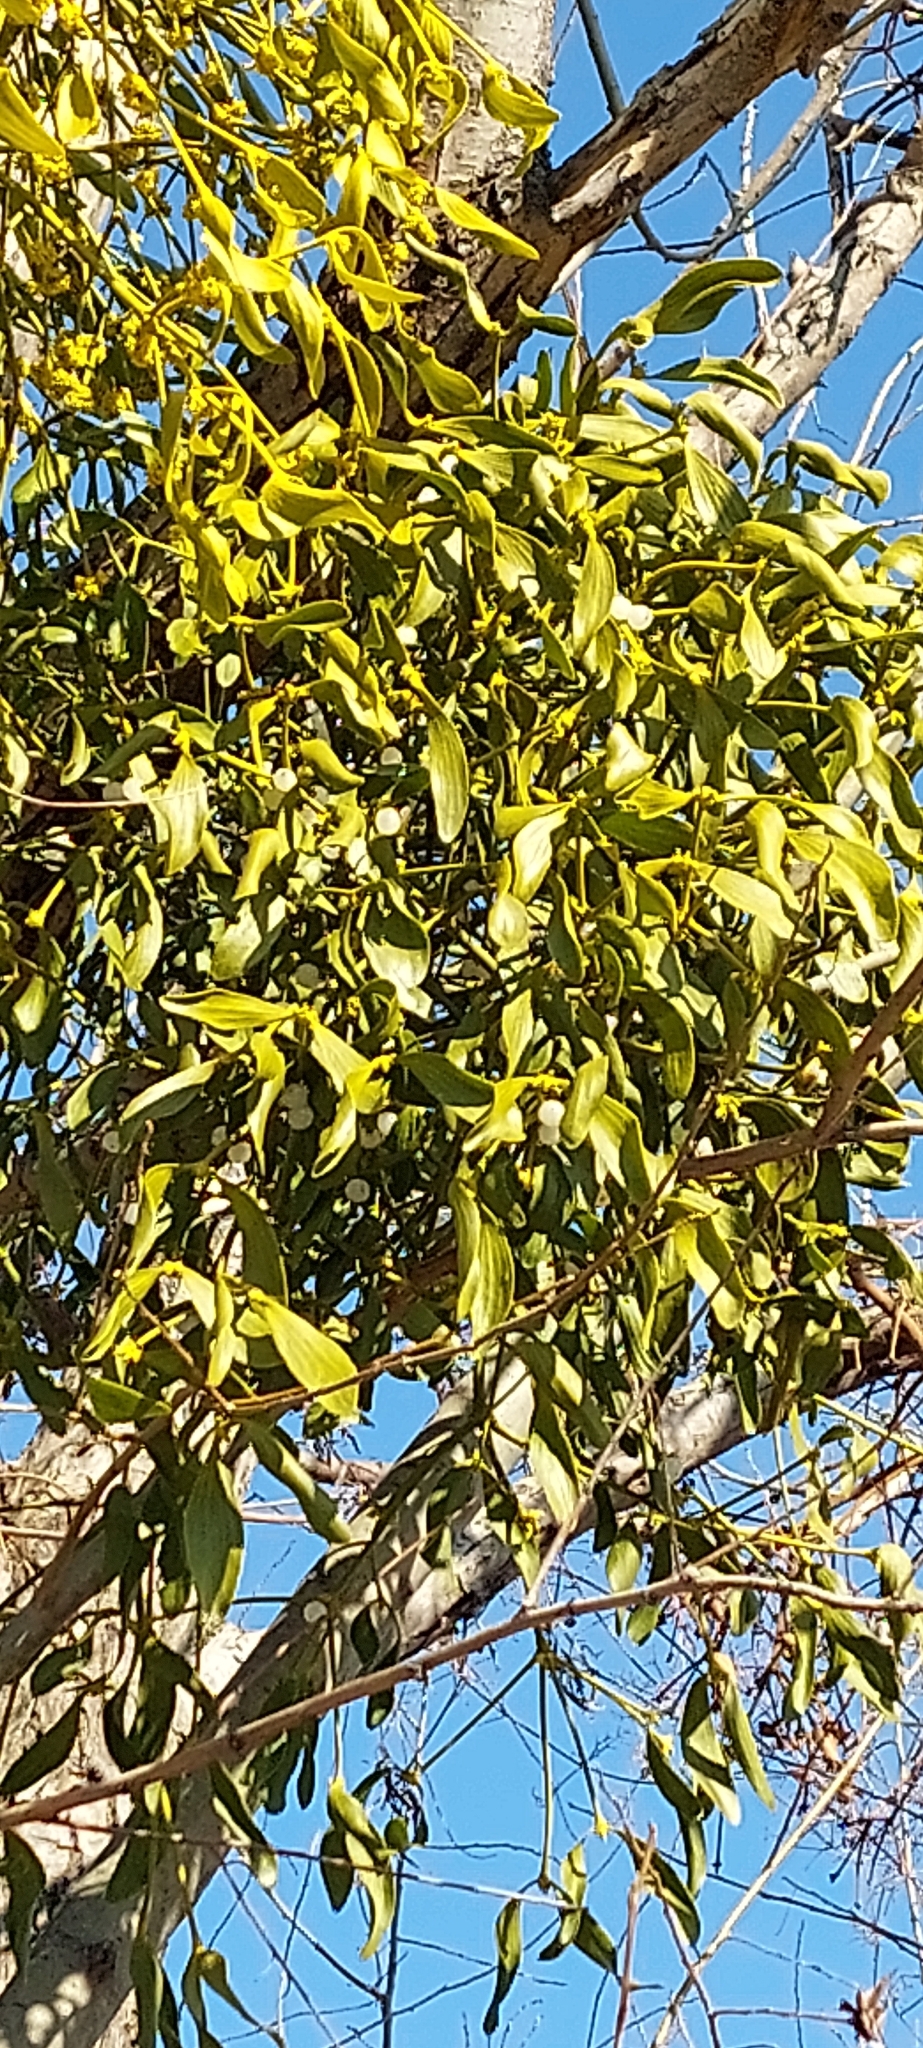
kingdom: Plantae
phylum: Tracheophyta
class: Magnoliopsida
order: Santalales
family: Viscaceae
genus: Viscum
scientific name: Viscum album
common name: Mistletoe
